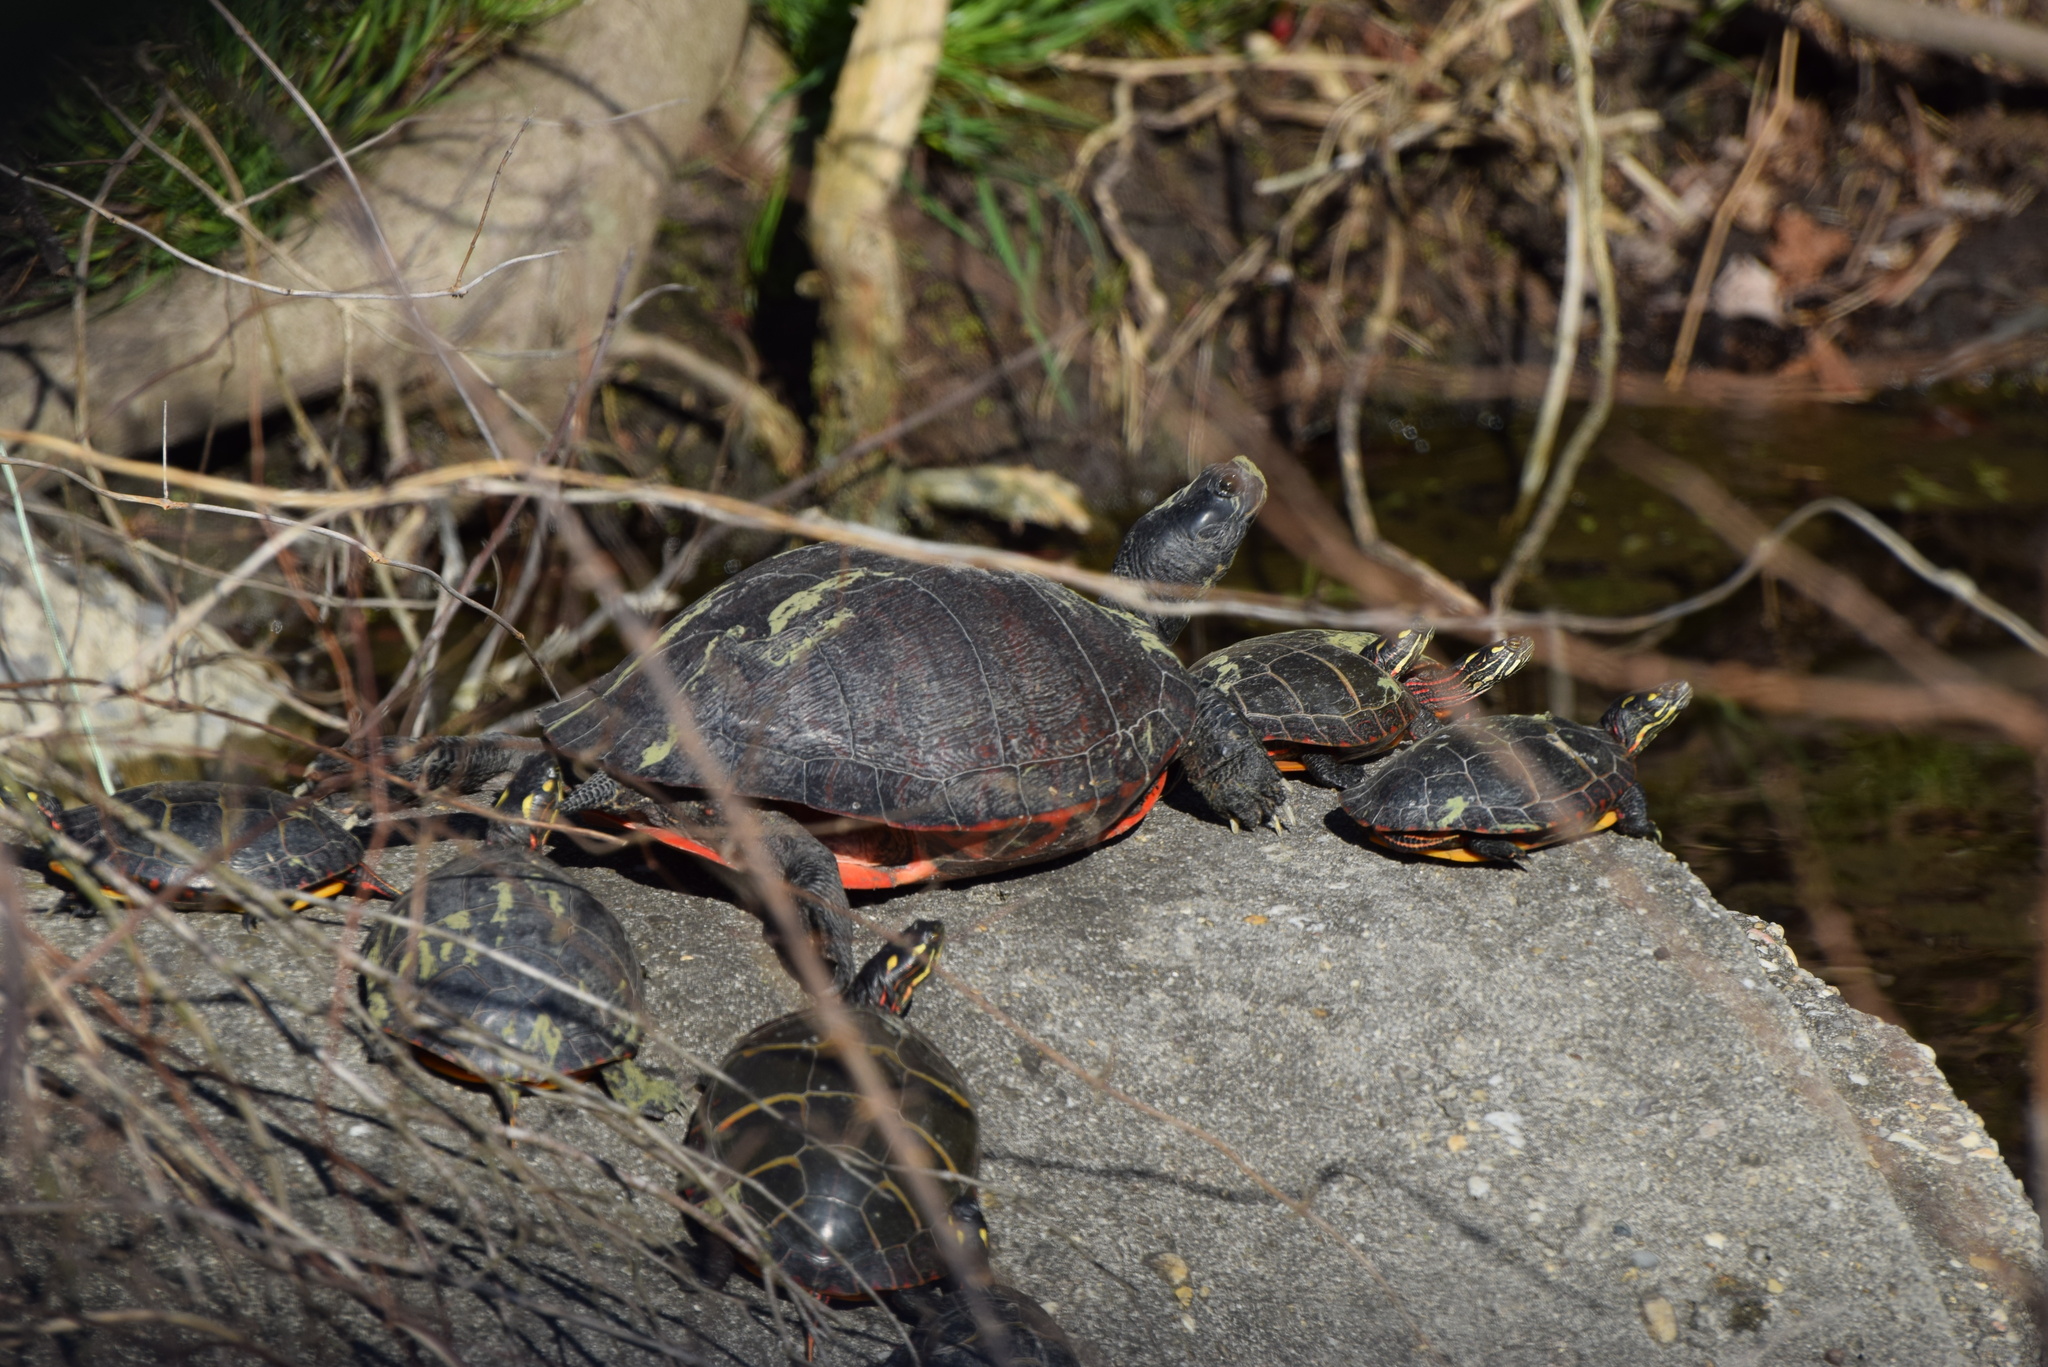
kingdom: Animalia
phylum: Chordata
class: Testudines
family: Emydidae
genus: Pseudemys
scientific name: Pseudemys rubriventris
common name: American red-bellied turtle
